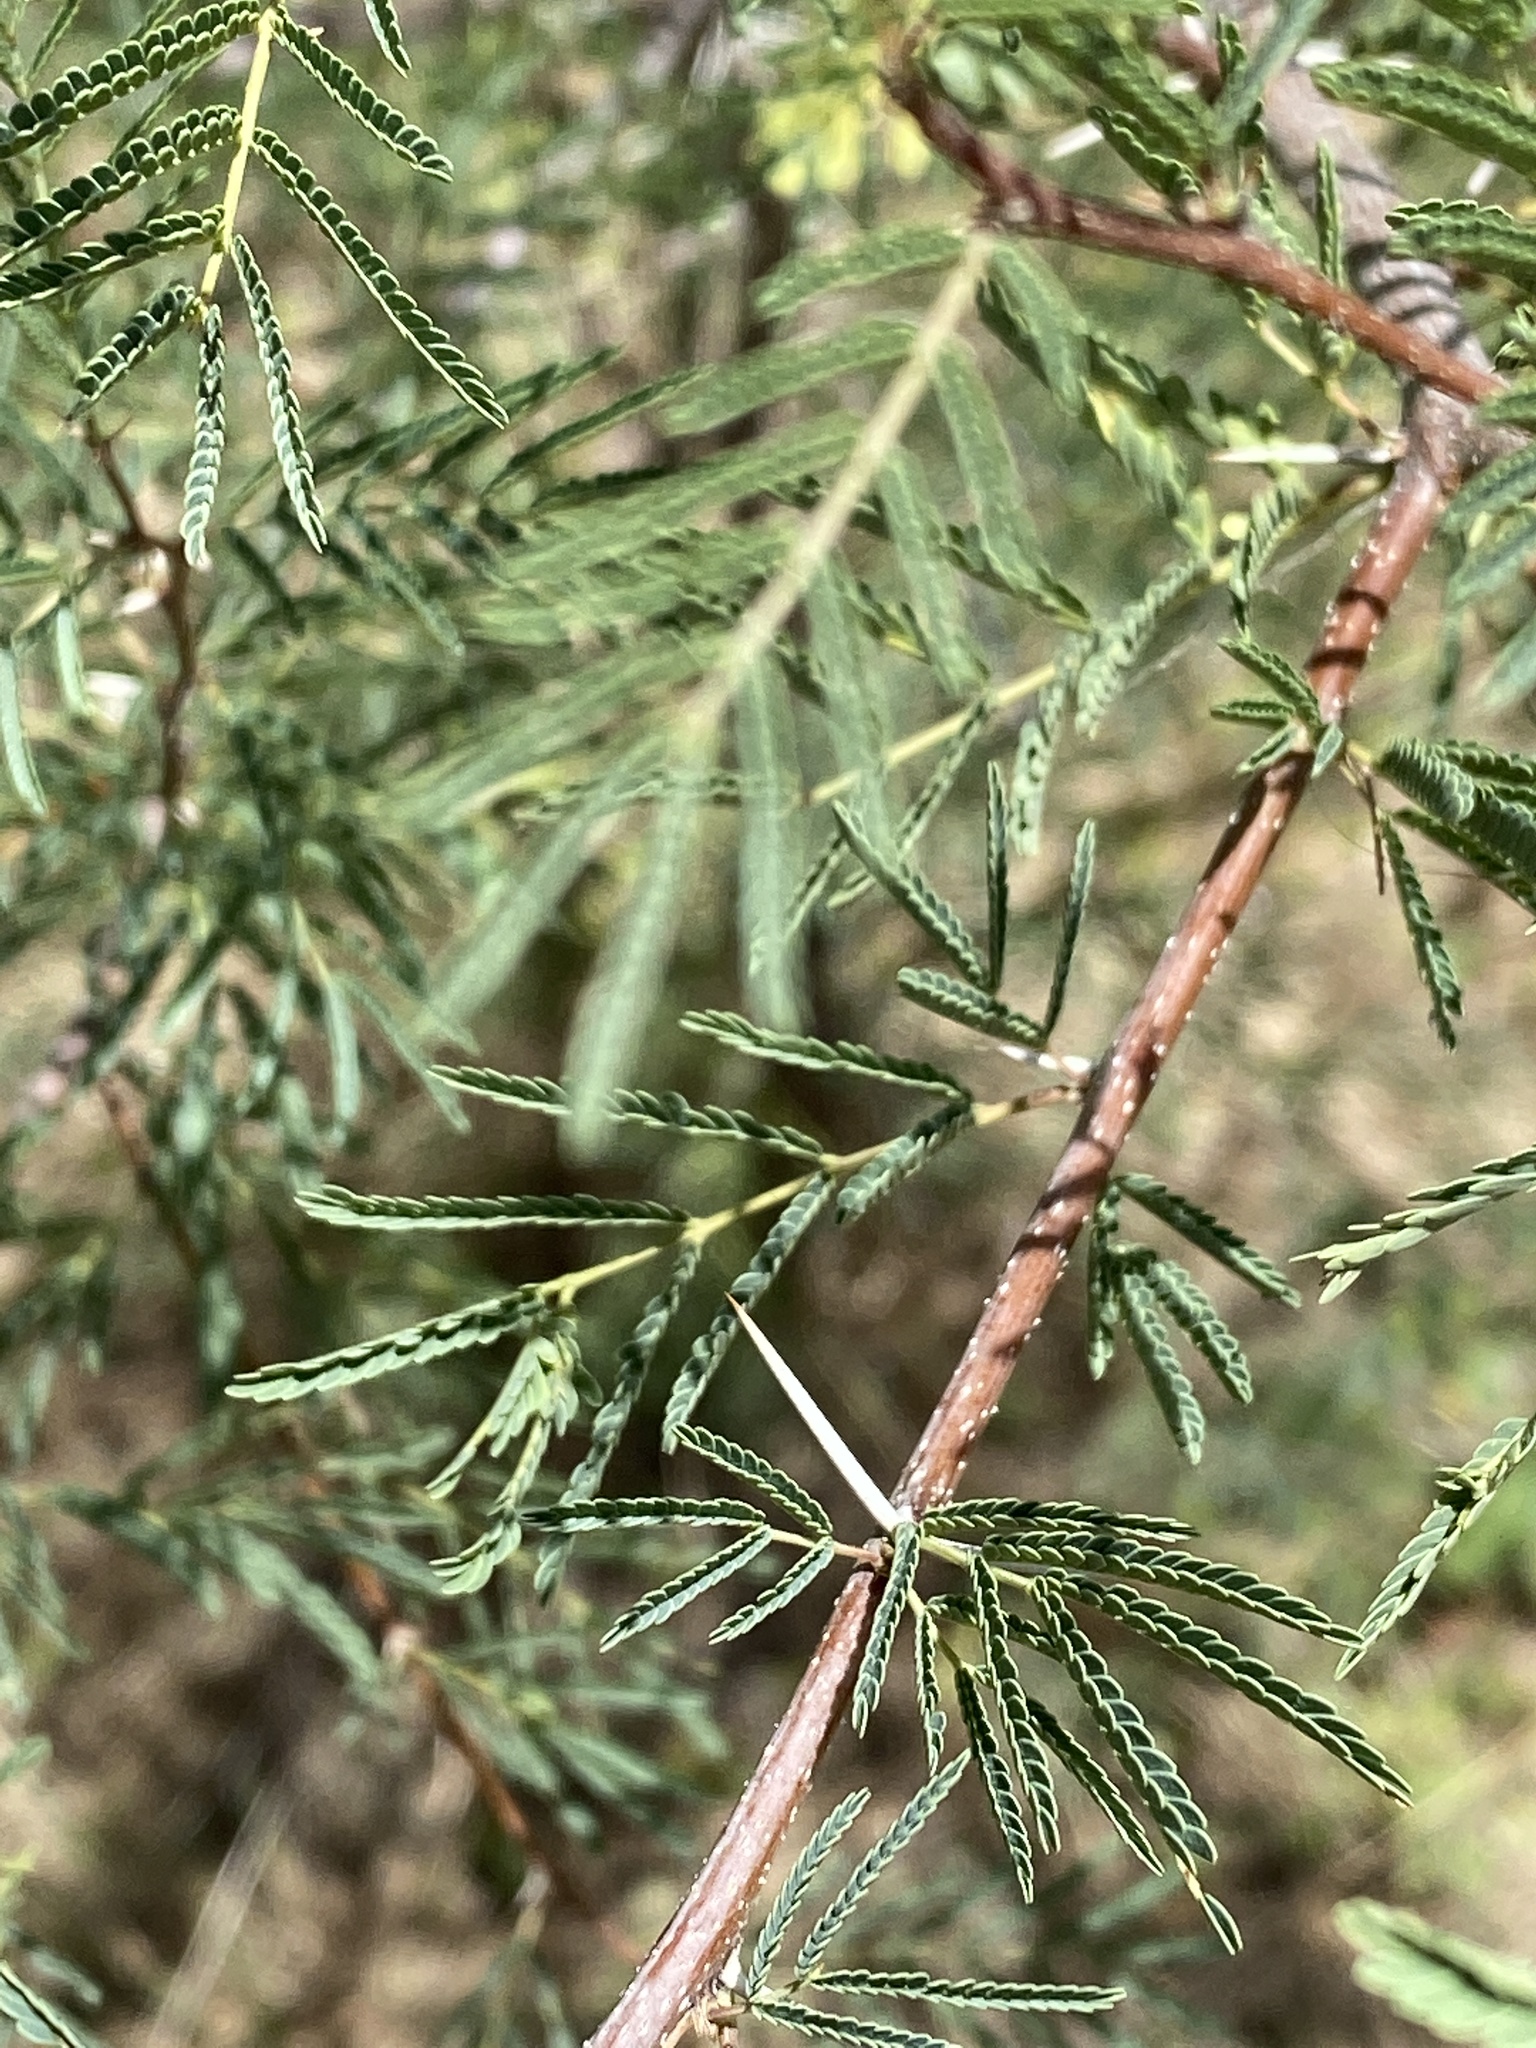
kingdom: Plantae
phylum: Tracheophyta
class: Magnoliopsida
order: Fabales
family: Fabaceae
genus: Vachellia
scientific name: Vachellia farnesiana
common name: Sweet acacia
